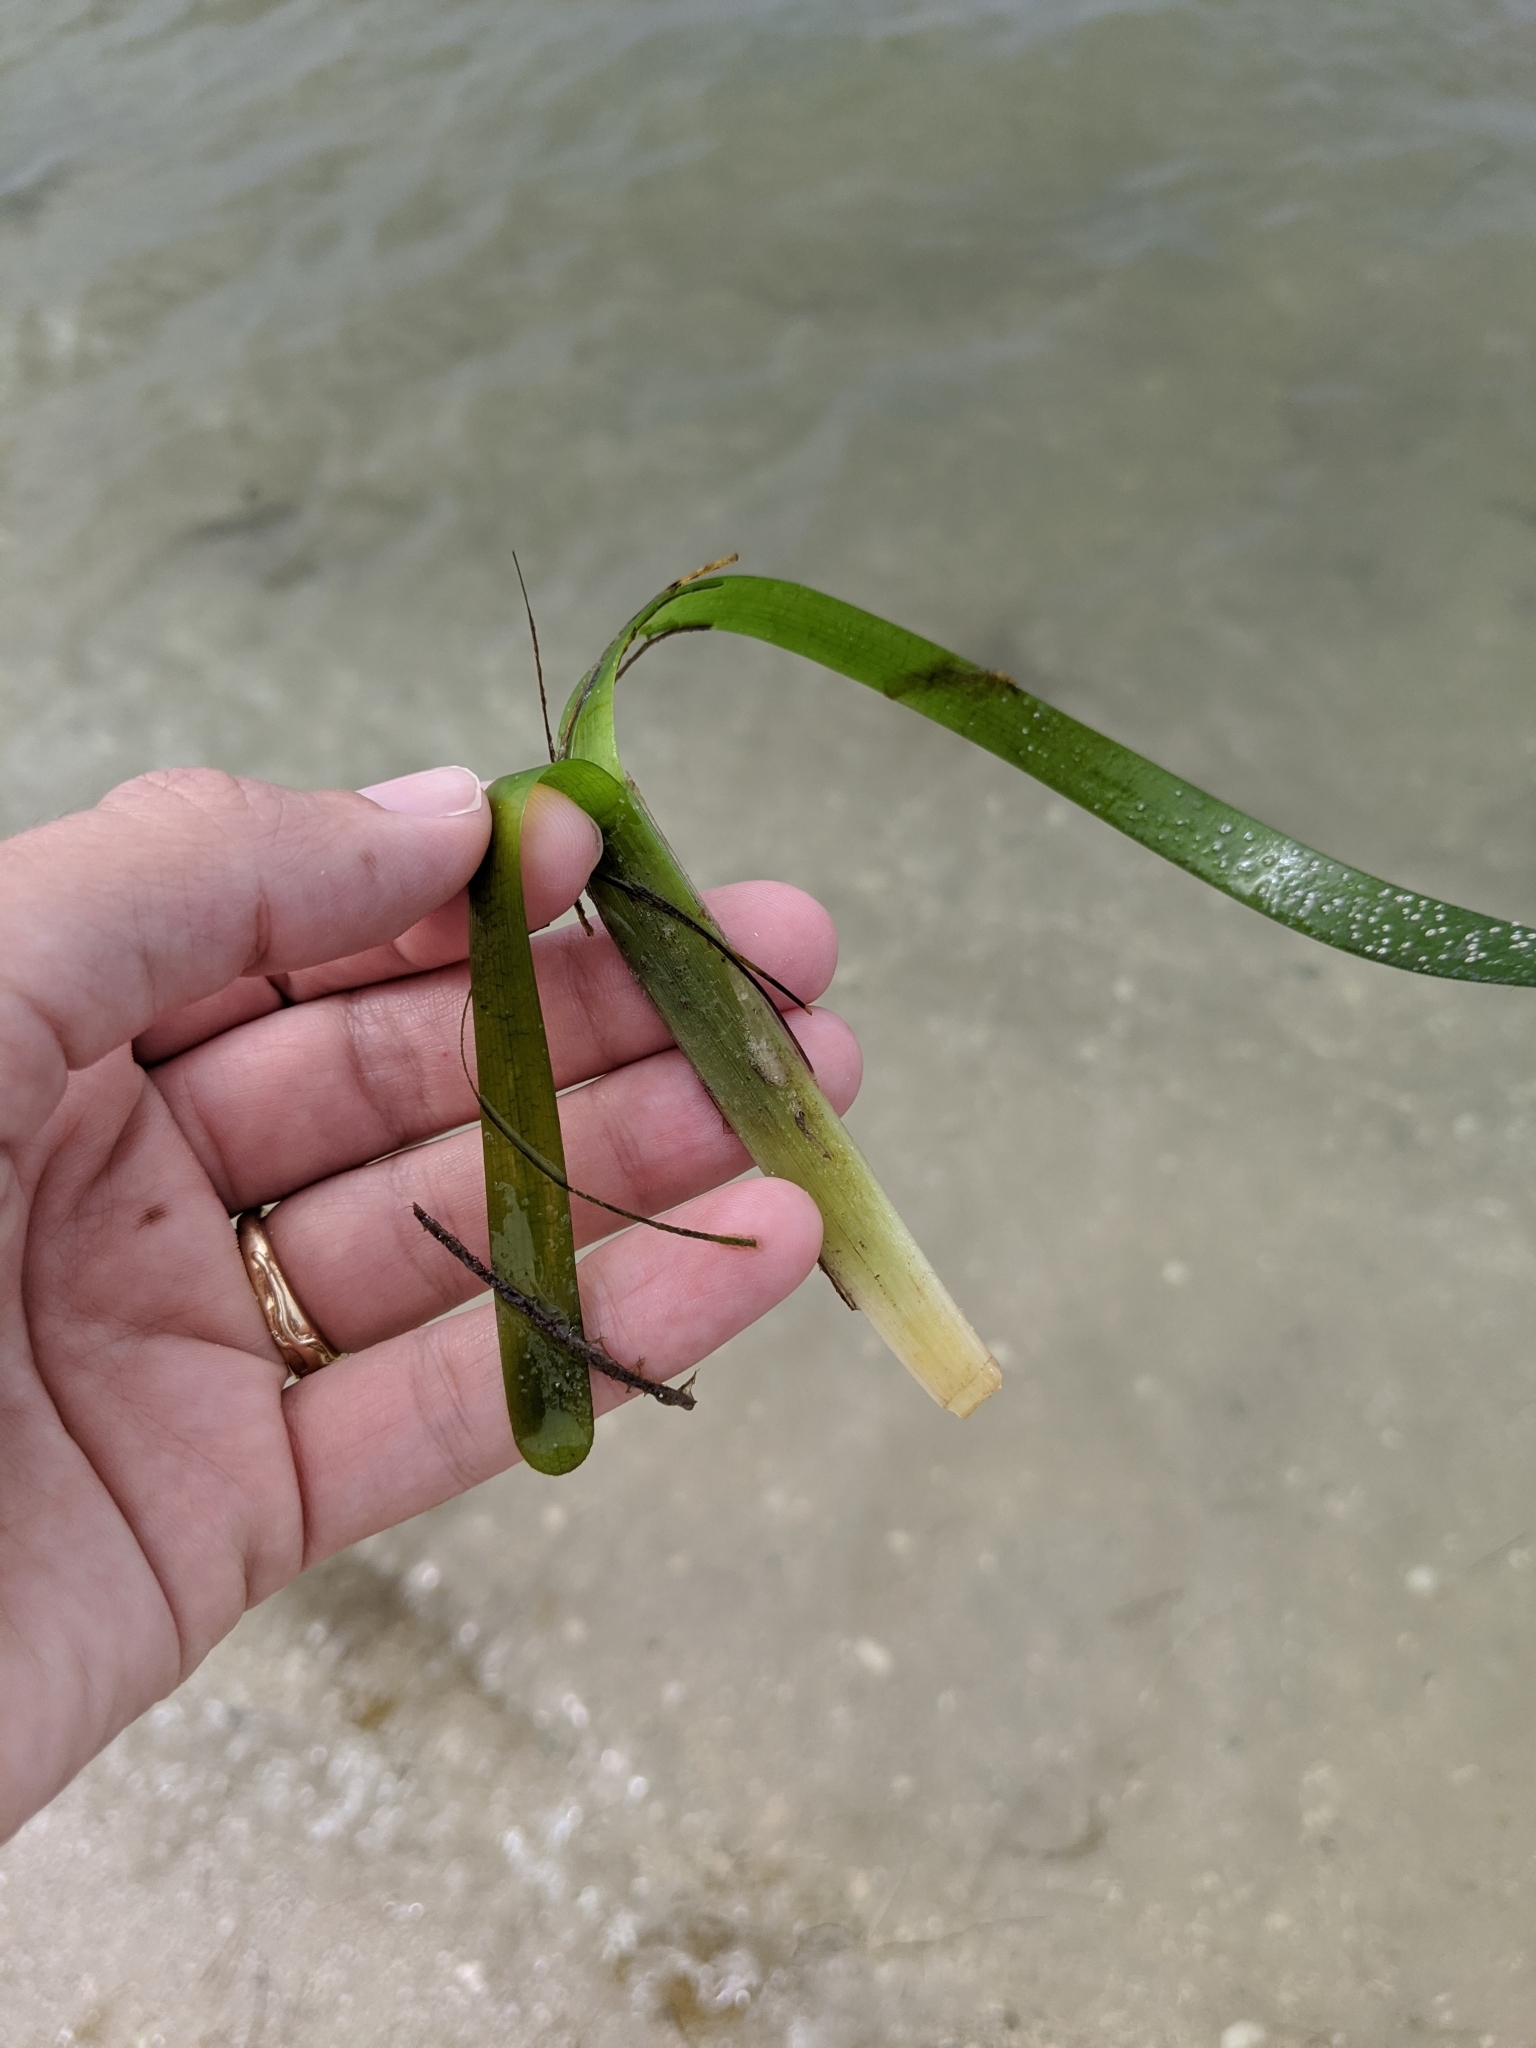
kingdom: Plantae
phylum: Tracheophyta
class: Liliopsida
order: Alismatales
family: Hydrocharitaceae
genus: Thalassia
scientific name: Thalassia testudinum
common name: Species code: tt
